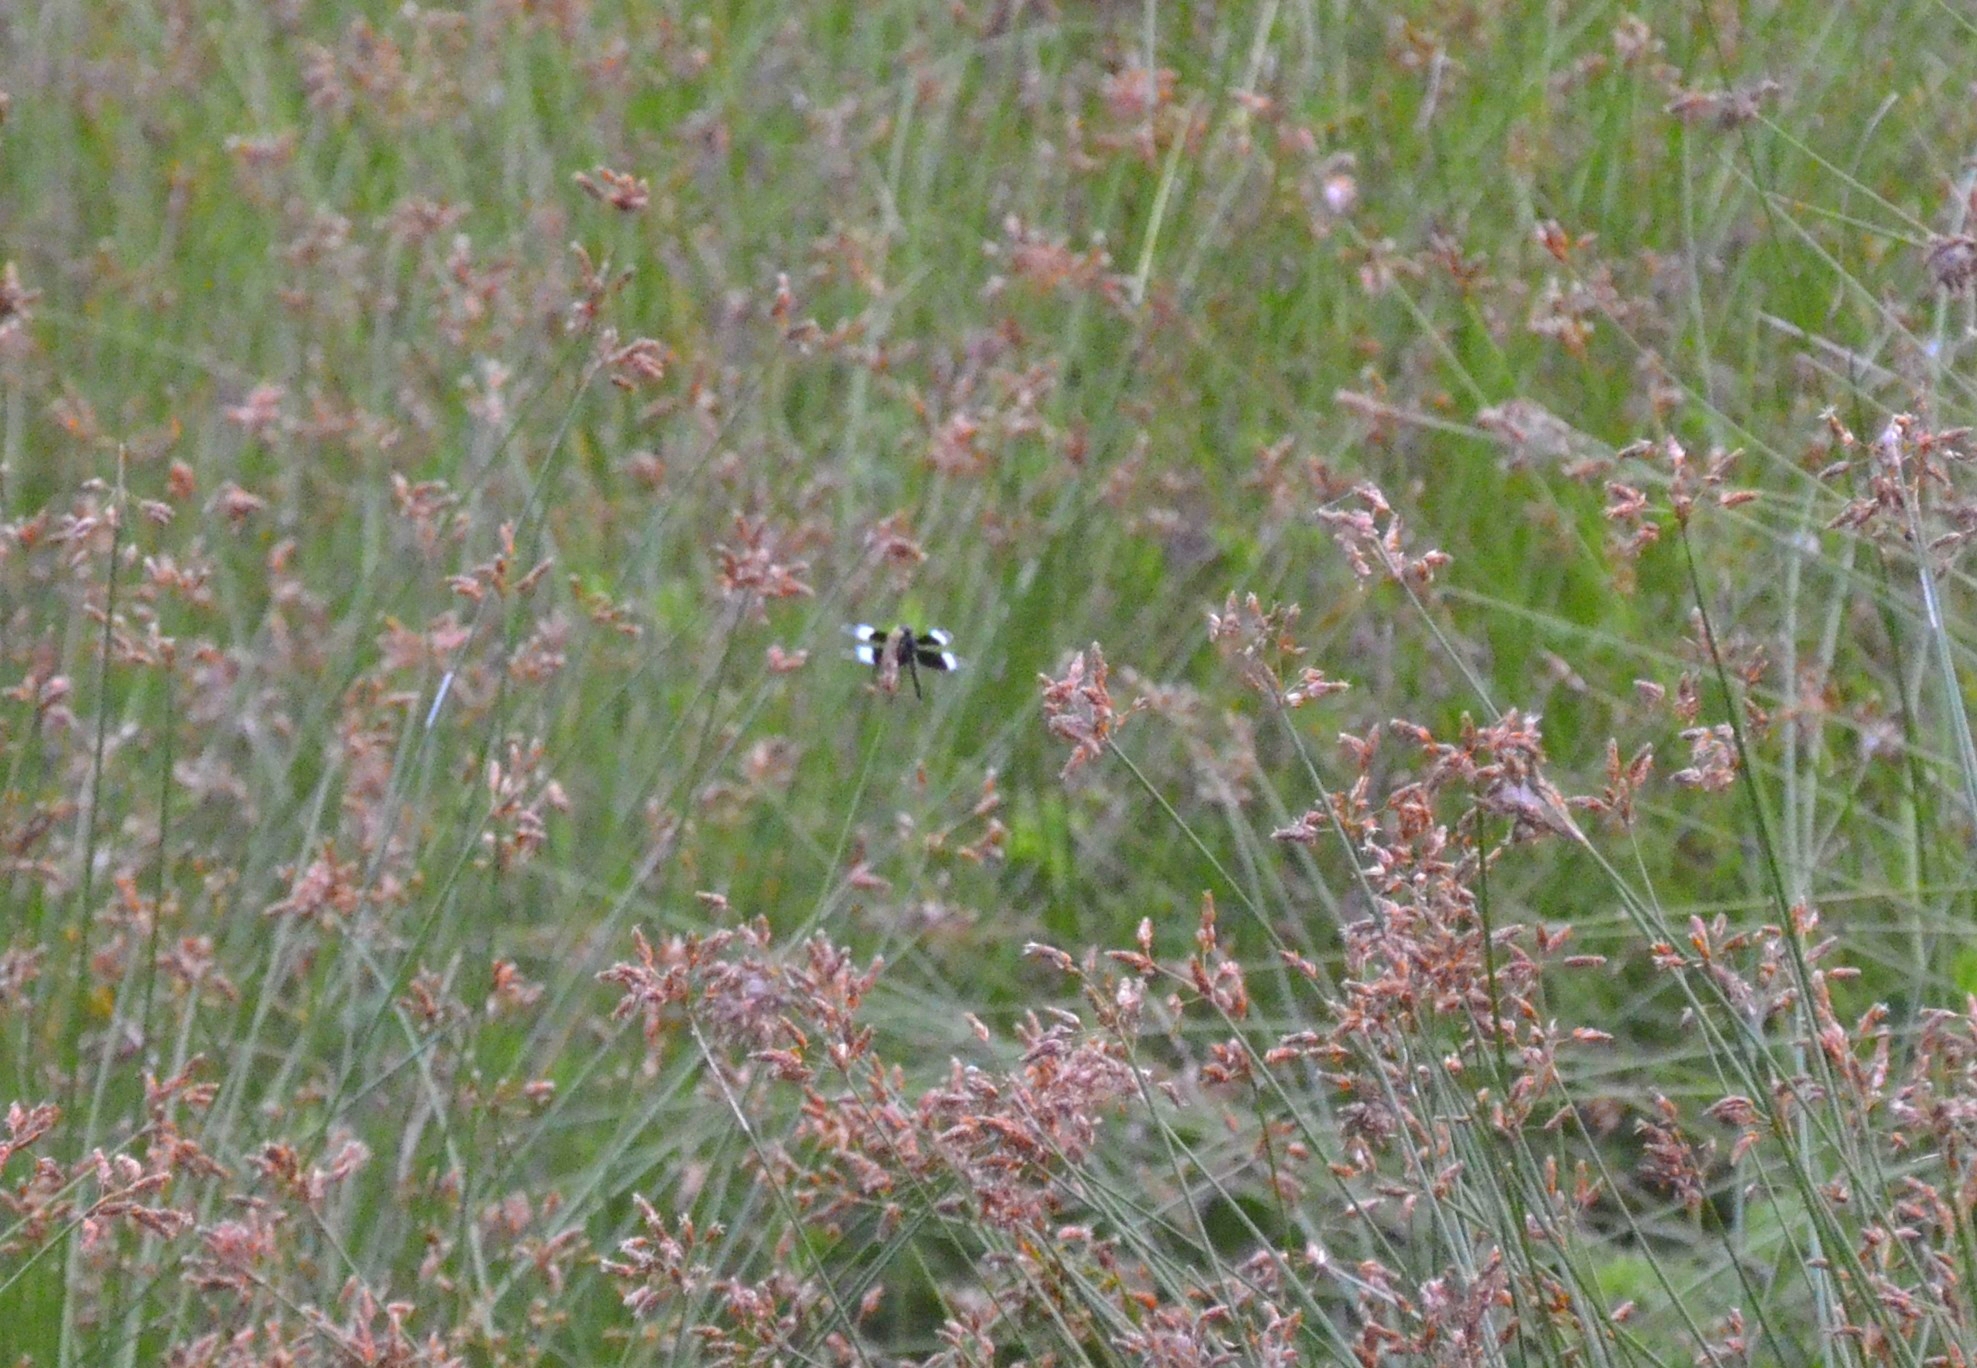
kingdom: Animalia
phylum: Arthropoda
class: Insecta
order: Odonata
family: Libellulidae
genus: Neurothemis
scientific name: Neurothemis tullia
